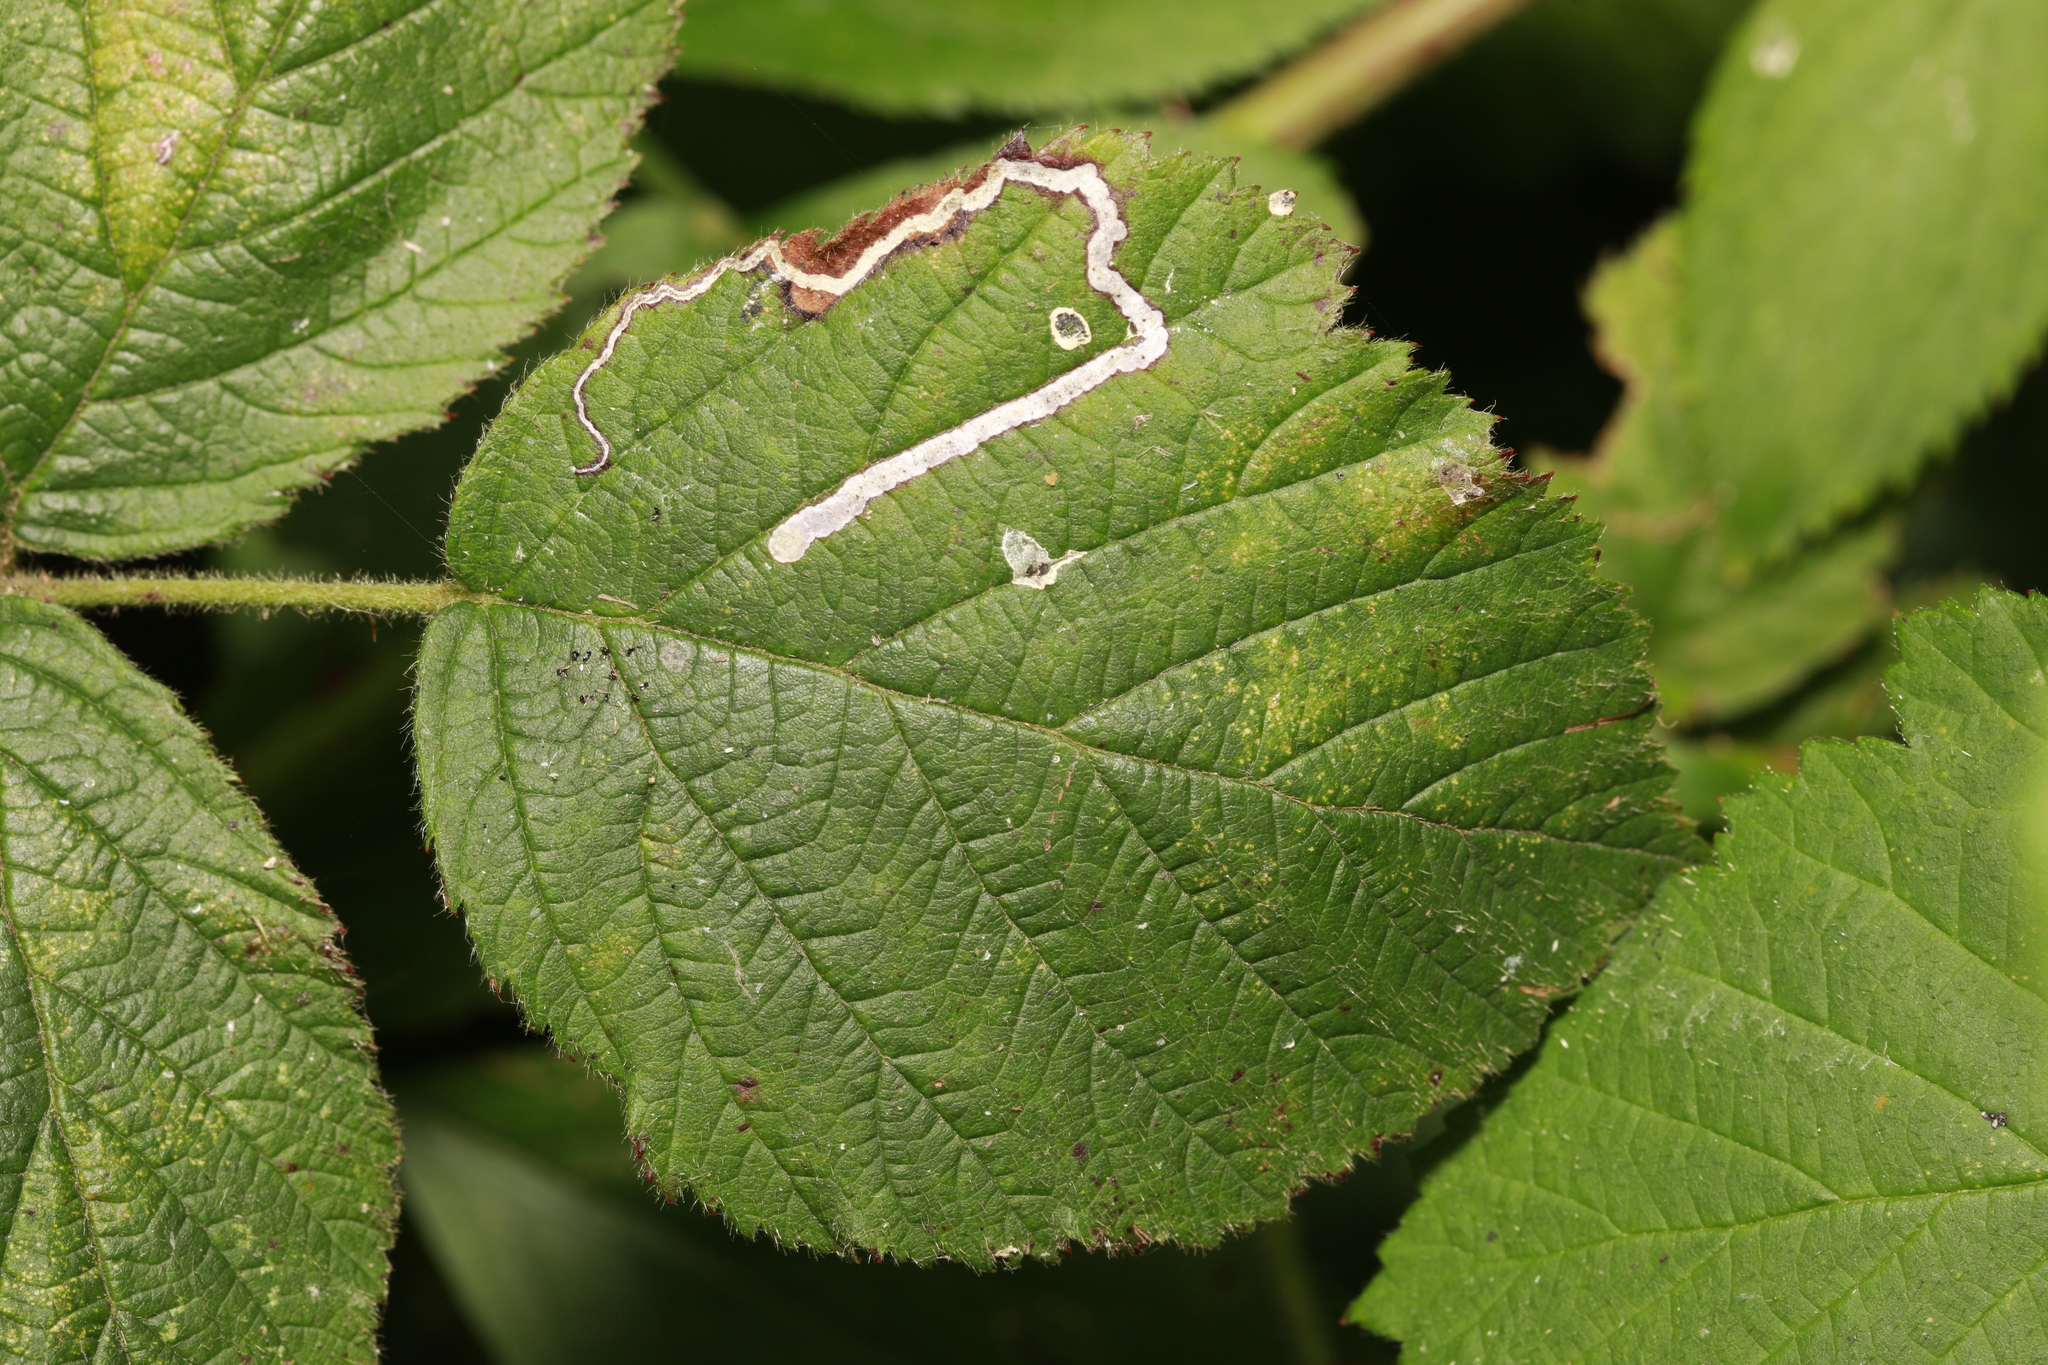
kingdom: Animalia
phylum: Arthropoda
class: Insecta
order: Lepidoptera
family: Nepticulidae
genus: Stigmella
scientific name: Stigmella aurella
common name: Golden pigmy
